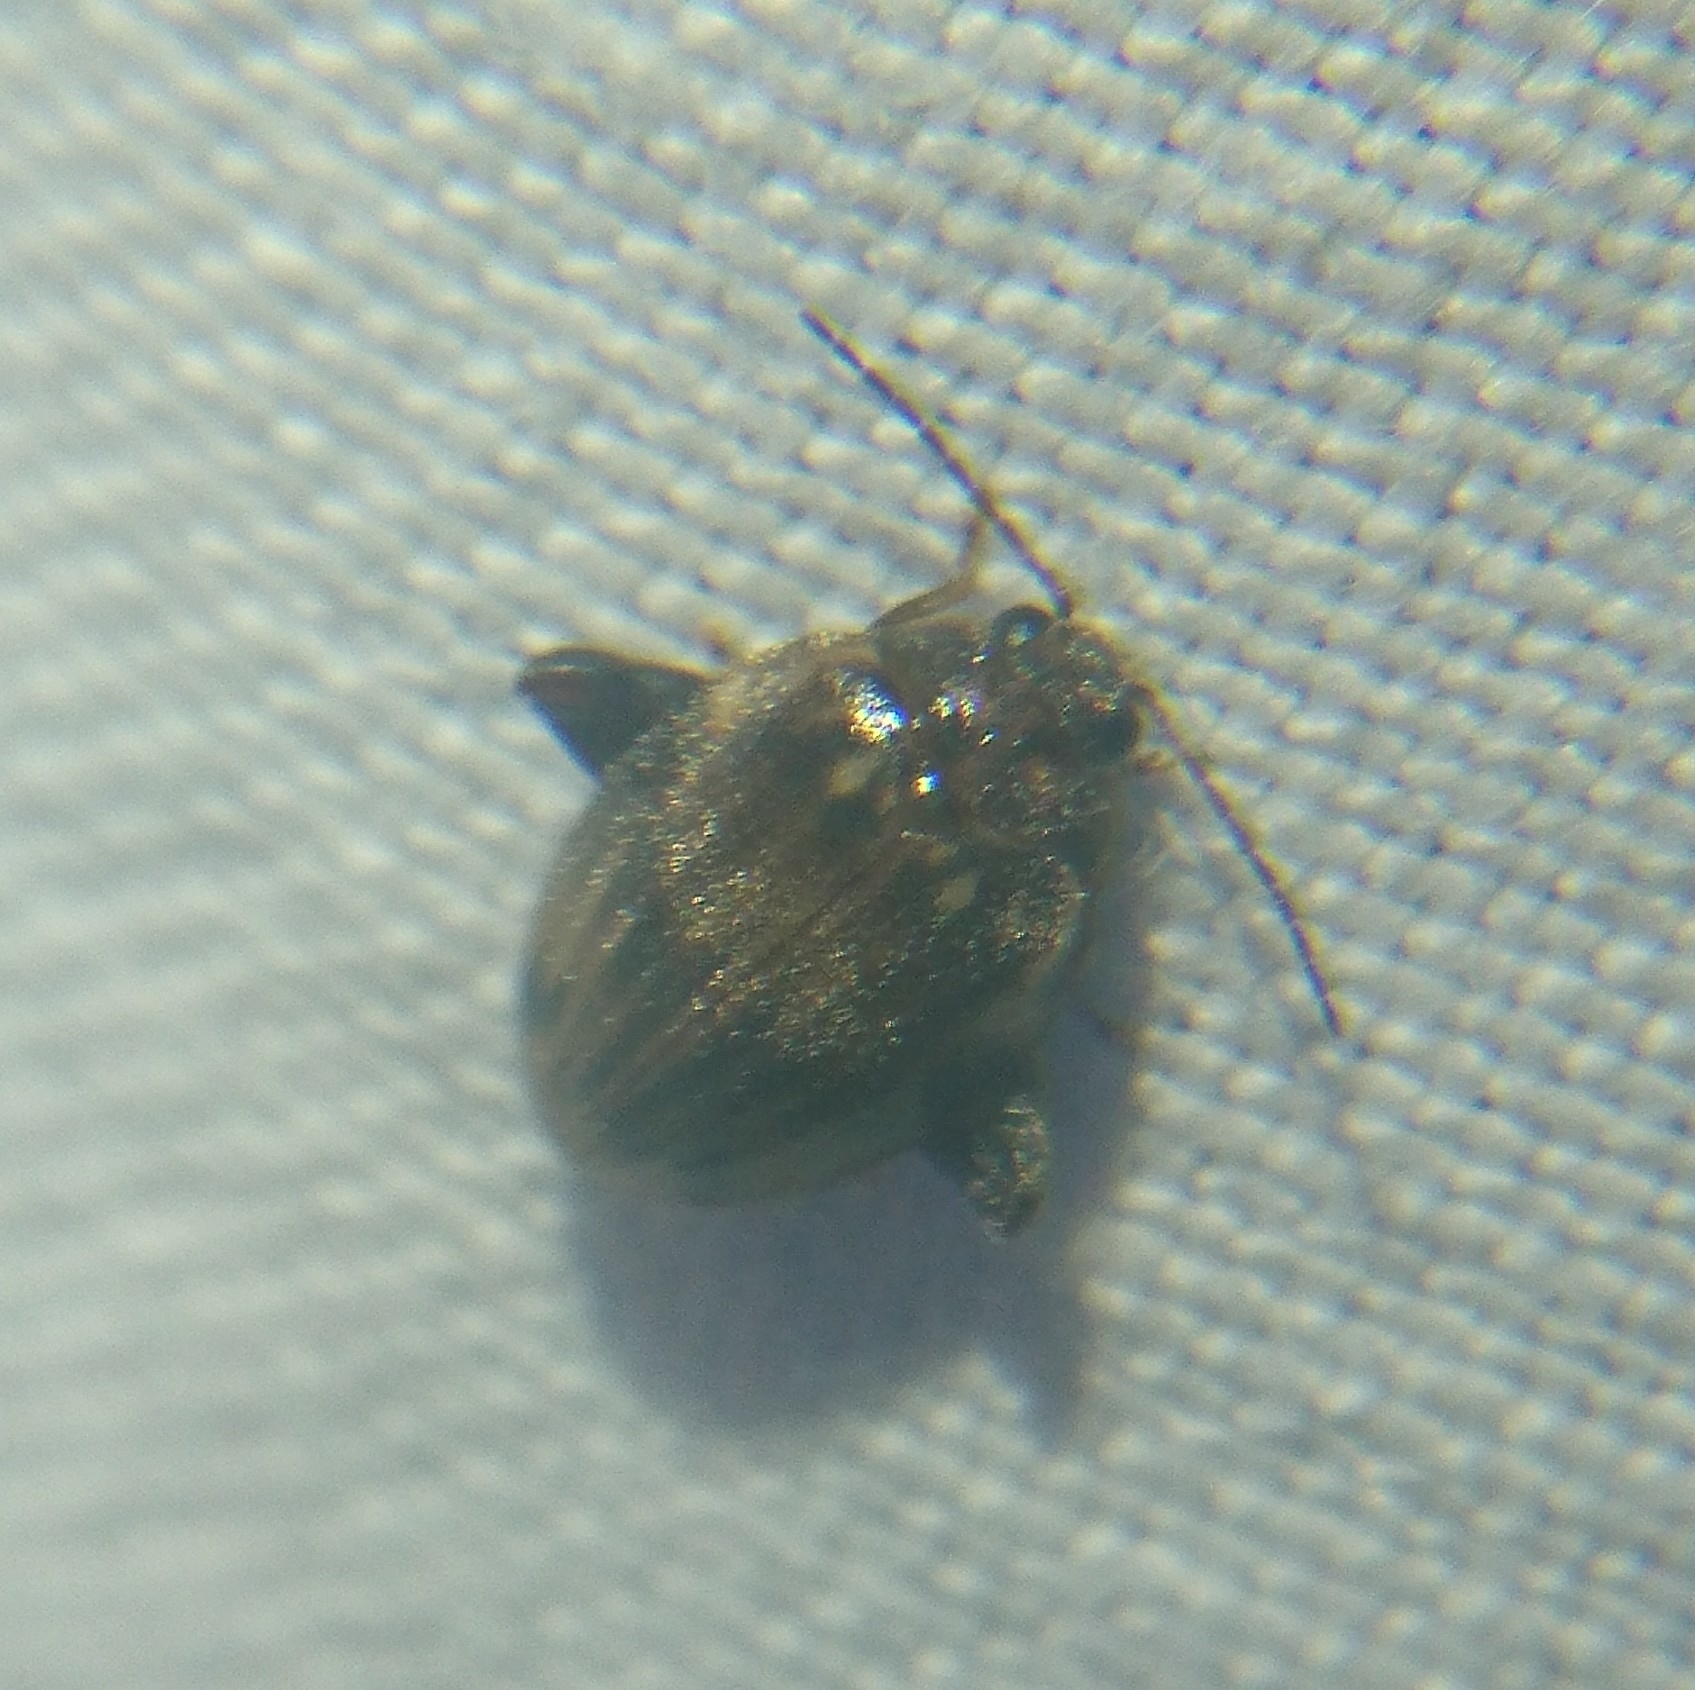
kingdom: Animalia
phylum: Arthropoda
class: Insecta
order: Coleoptera
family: Scirtidae
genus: Ora
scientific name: Ora texana
